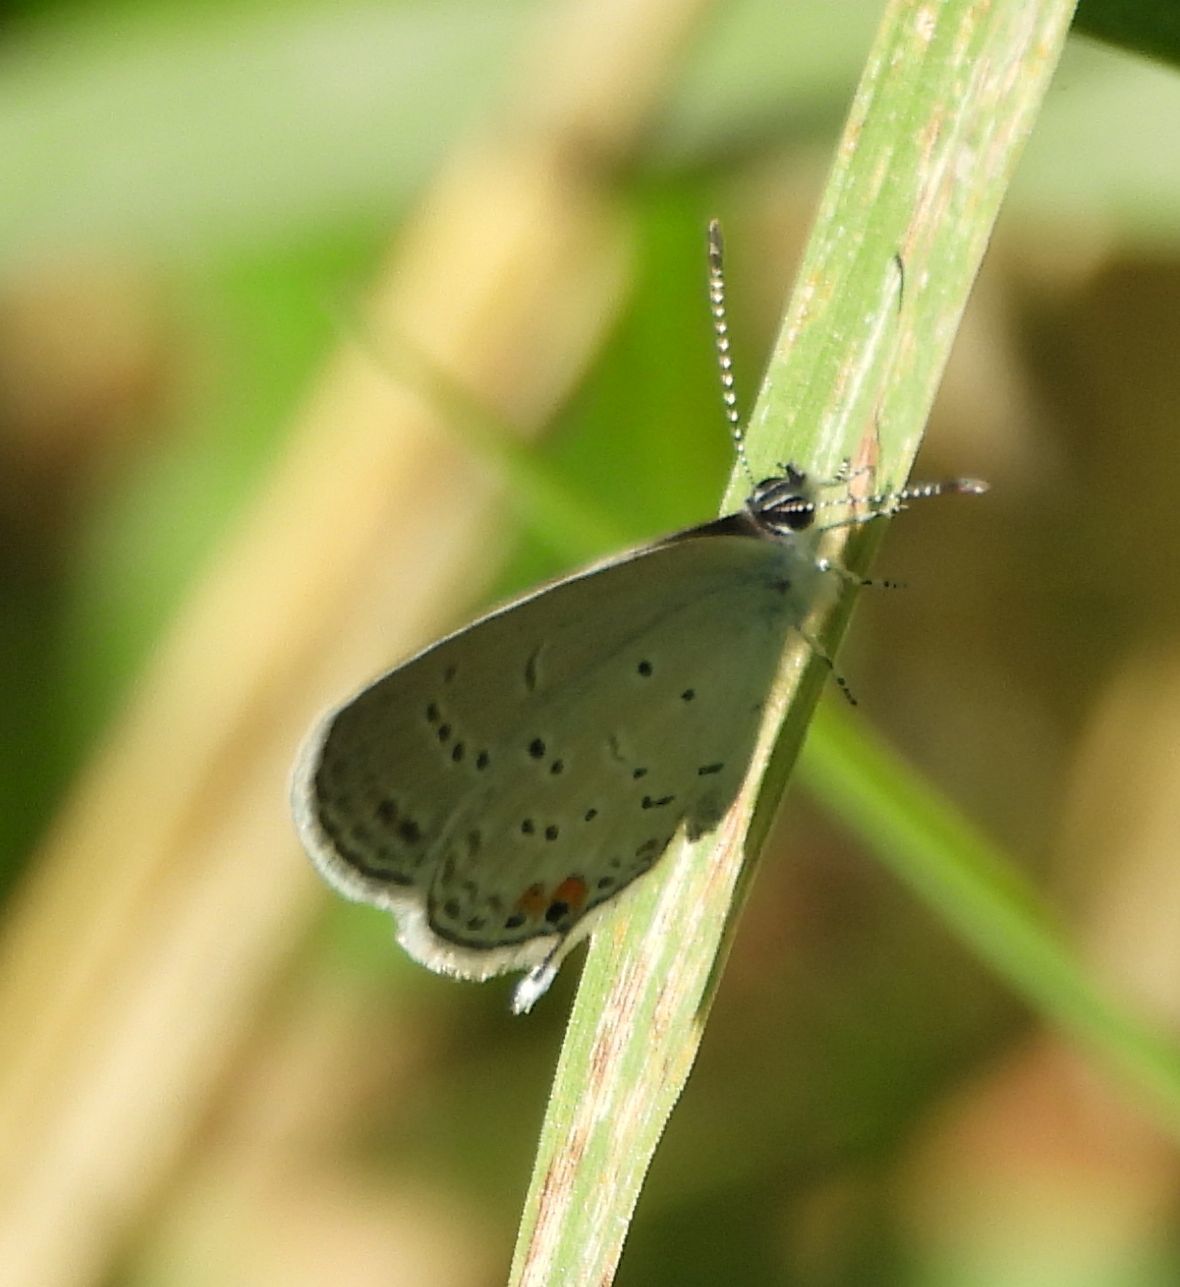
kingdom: Animalia
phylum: Arthropoda
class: Insecta
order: Lepidoptera
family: Lycaenidae
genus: Elkalyce
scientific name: Elkalyce comyntas
